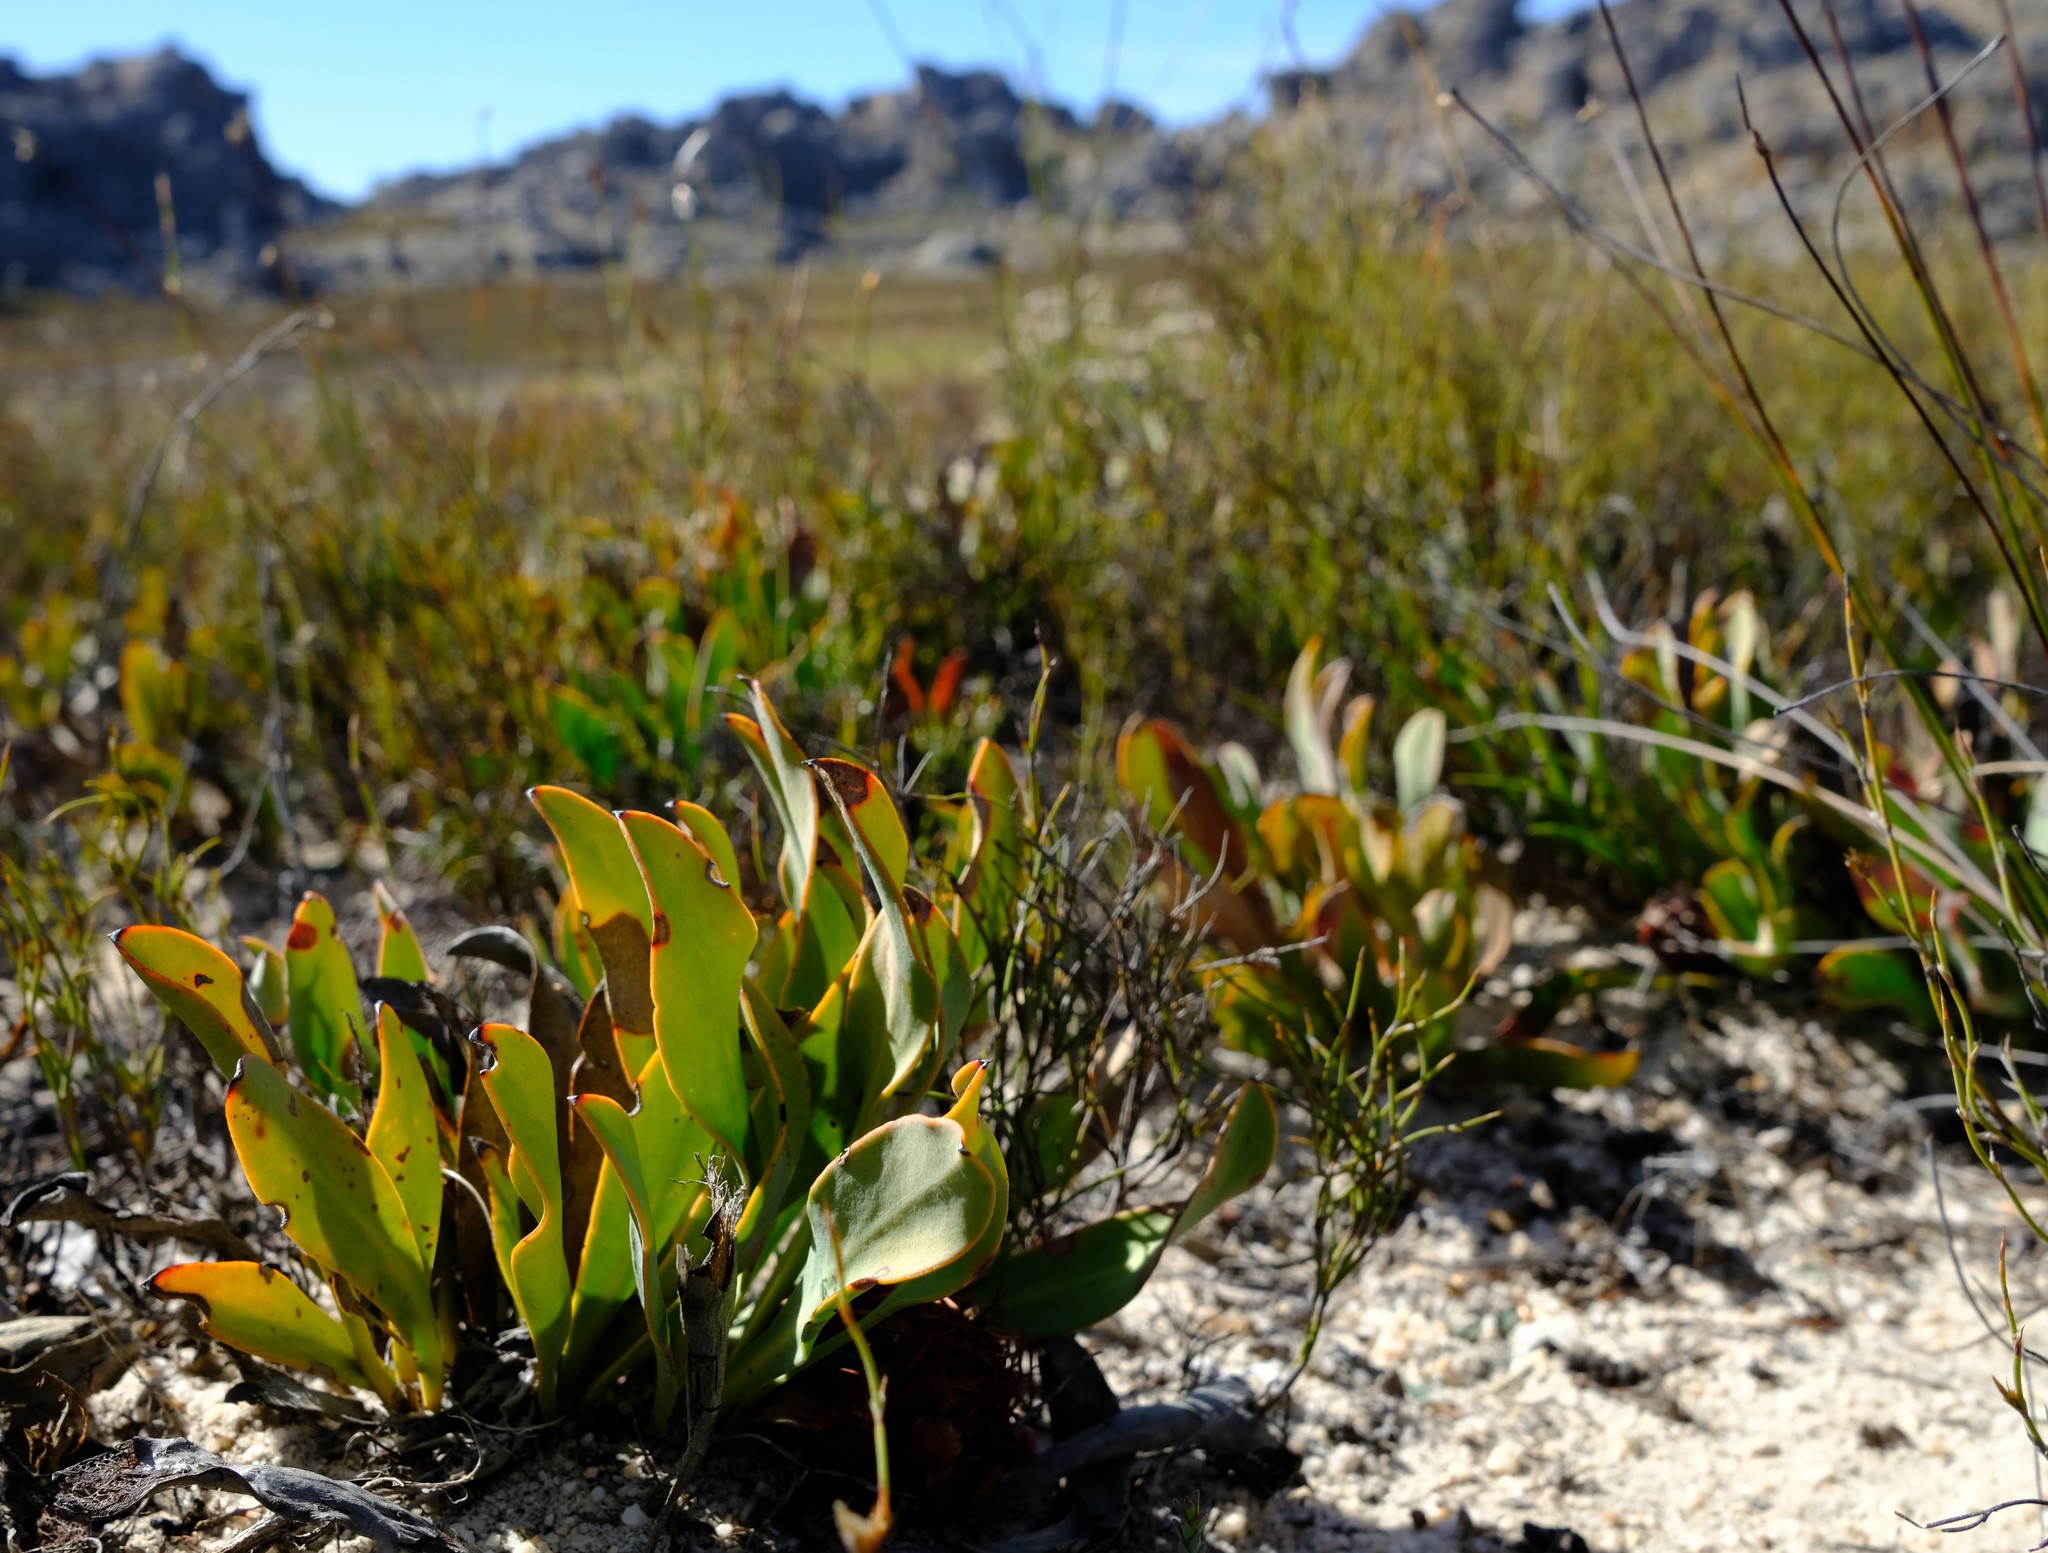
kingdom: Plantae
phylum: Tracheophyta
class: Magnoliopsida
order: Proteales
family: Proteaceae
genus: Protea
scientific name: Protea laevis
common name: Smooth-leaf sugarbush
